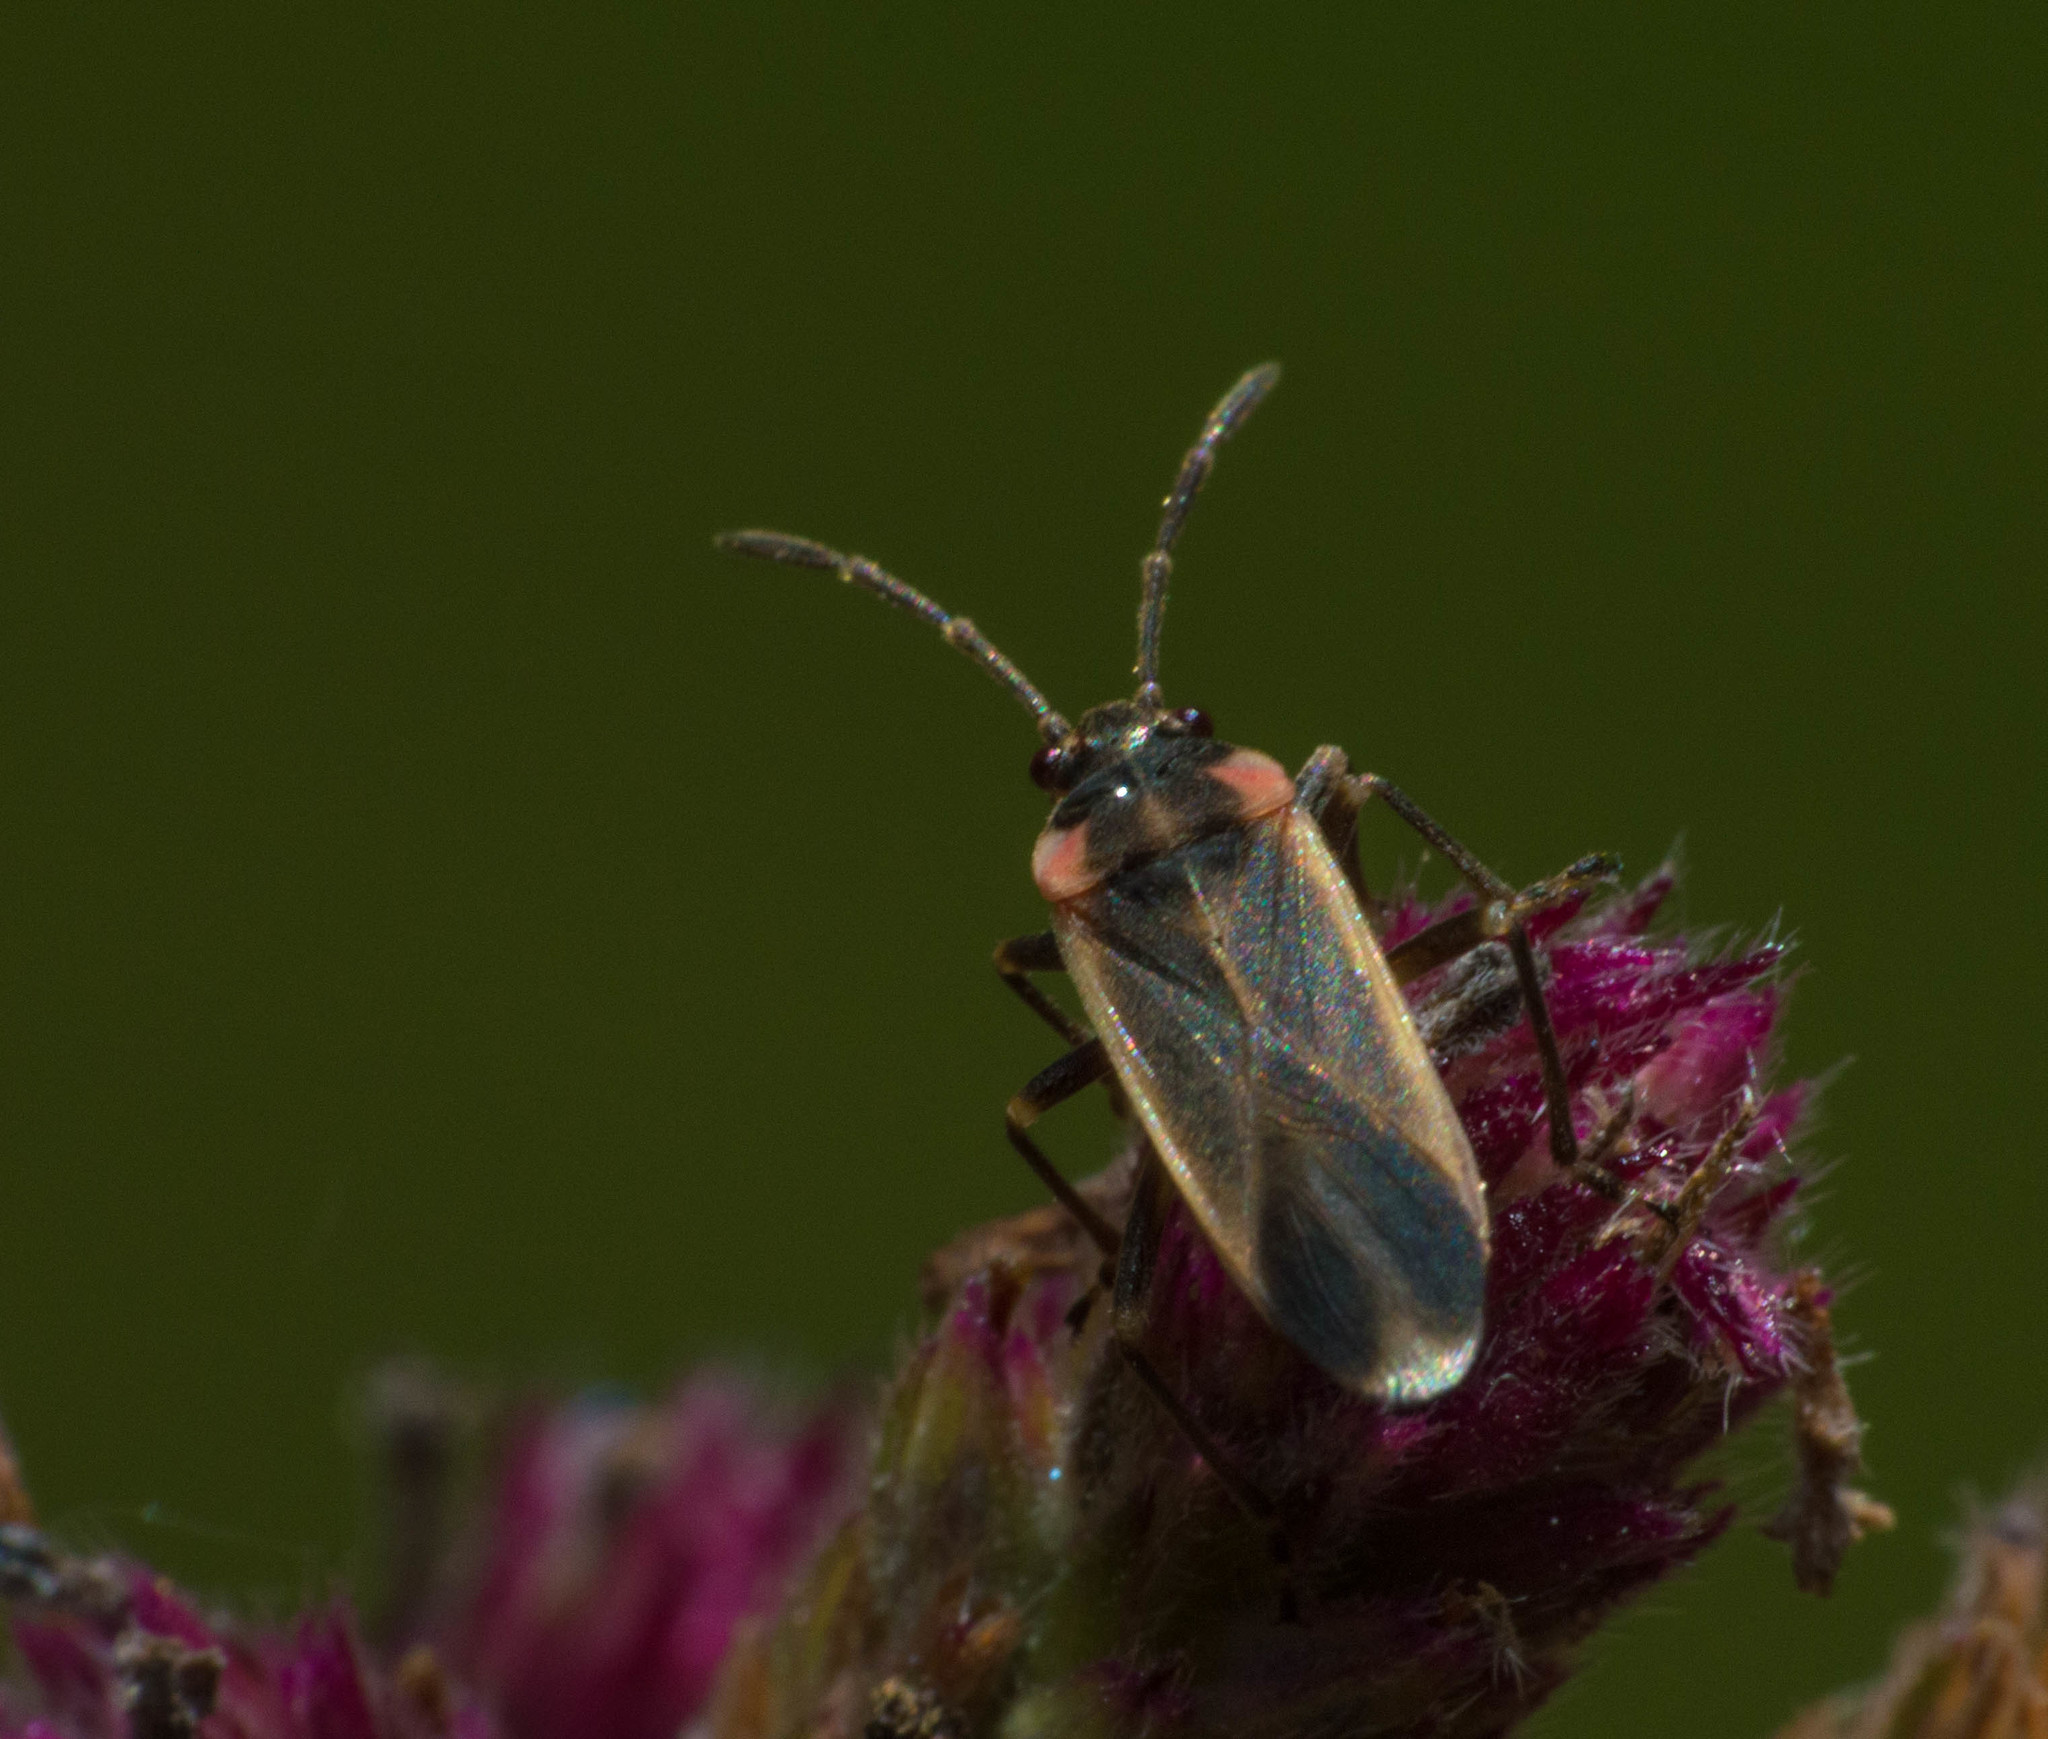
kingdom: Animalia
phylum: Arthropoda
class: Insecta
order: Hemiptera
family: Lygaeidae
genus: Acroleucus
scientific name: Acroleucus coxalis
